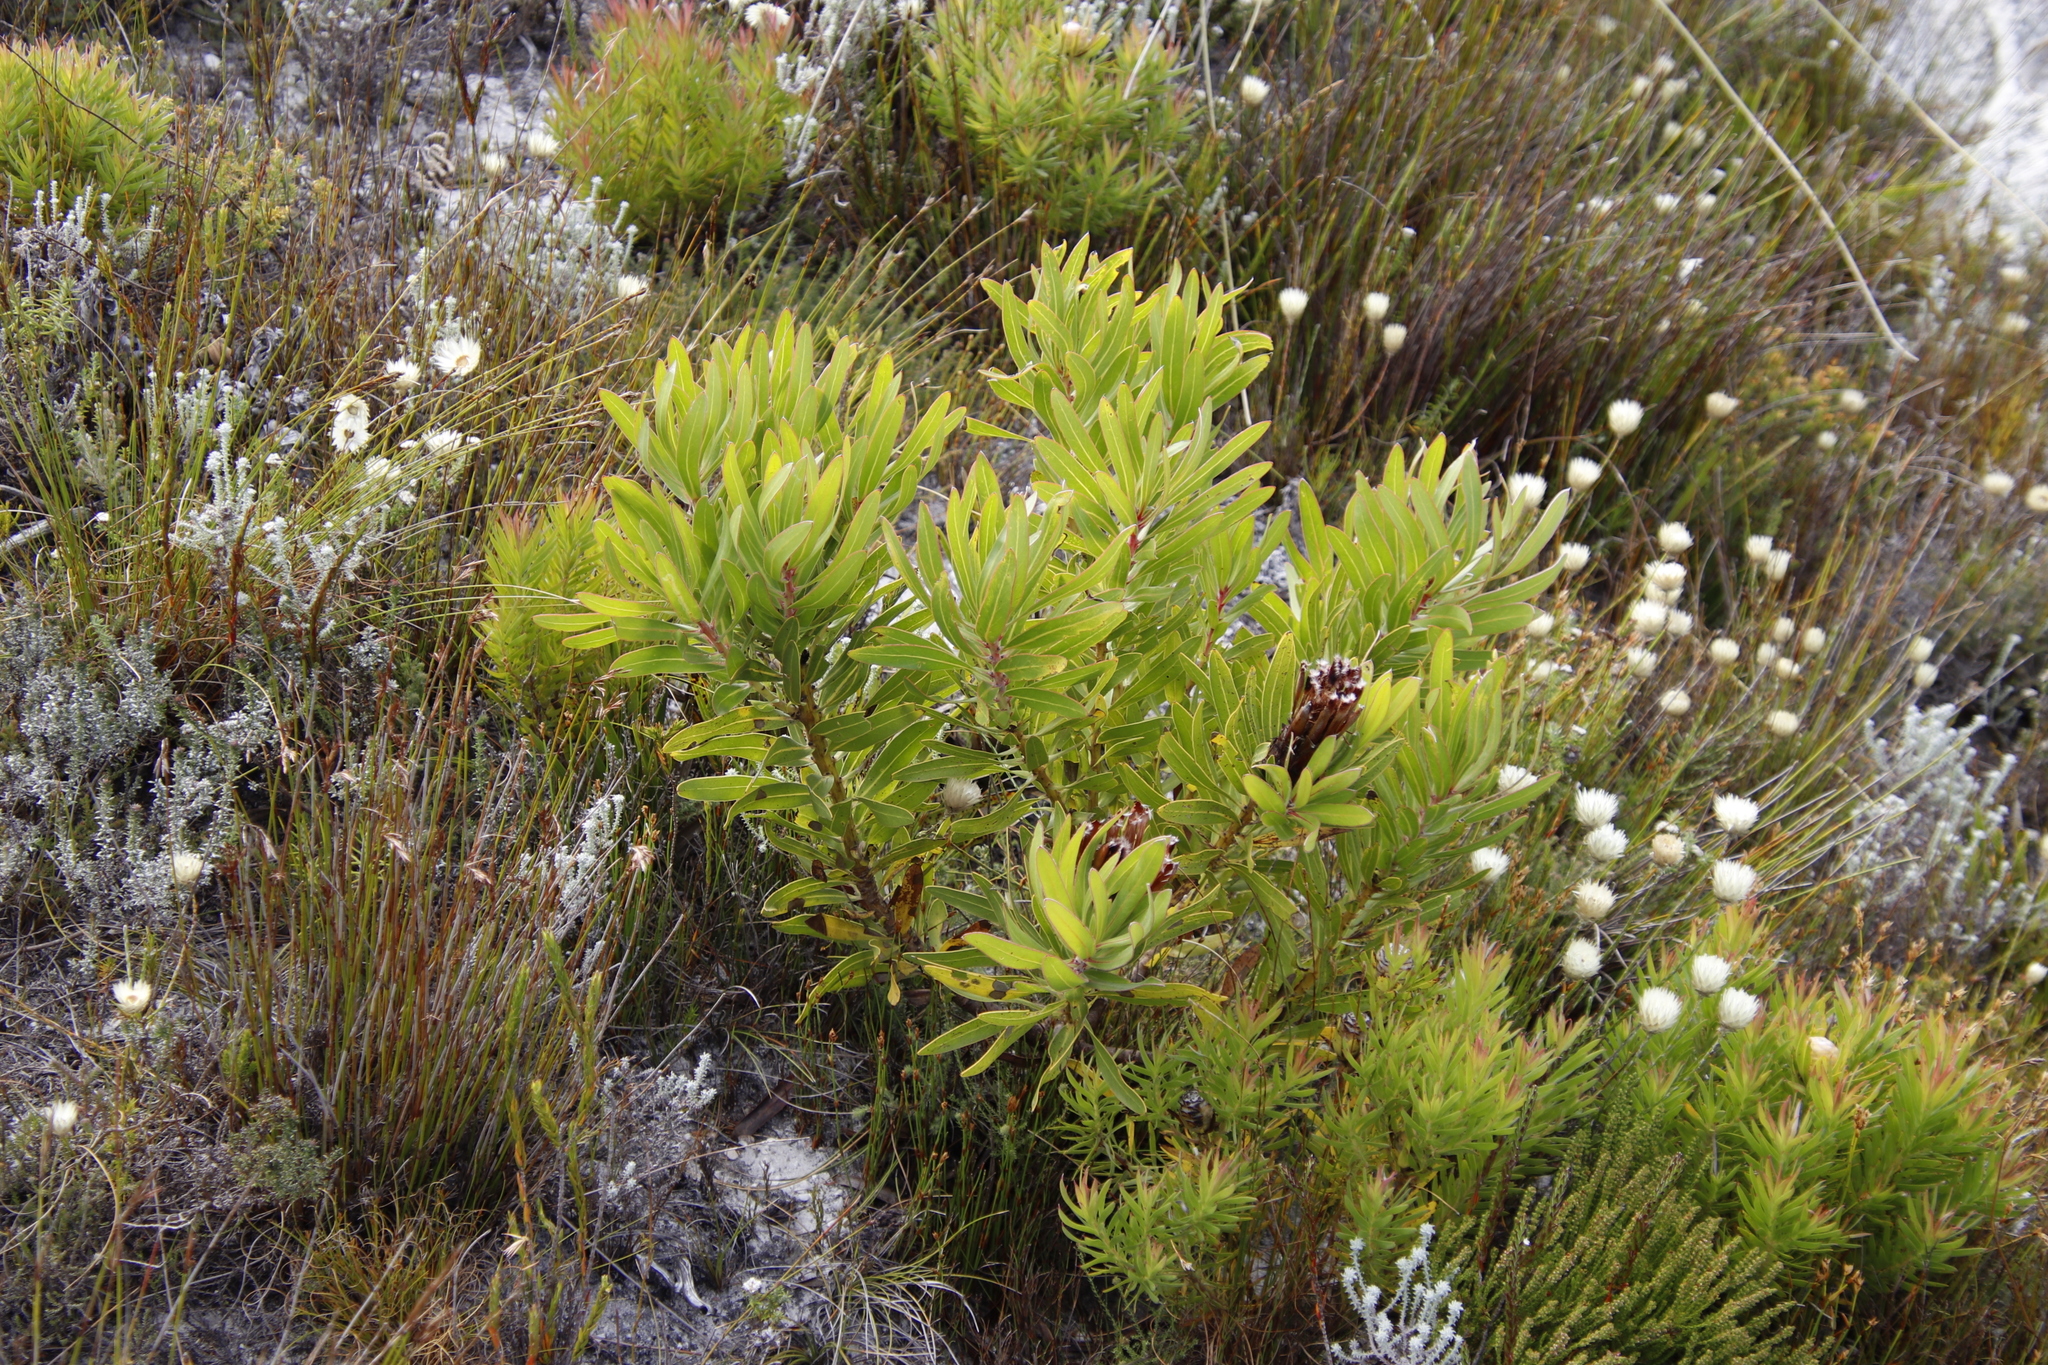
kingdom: Plantae
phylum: Tracheophyta
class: Magnoliopsida
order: Proteales
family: Proteaceae
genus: Protea
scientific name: Protea lepidocarpodendron
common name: Black-bearded protea
